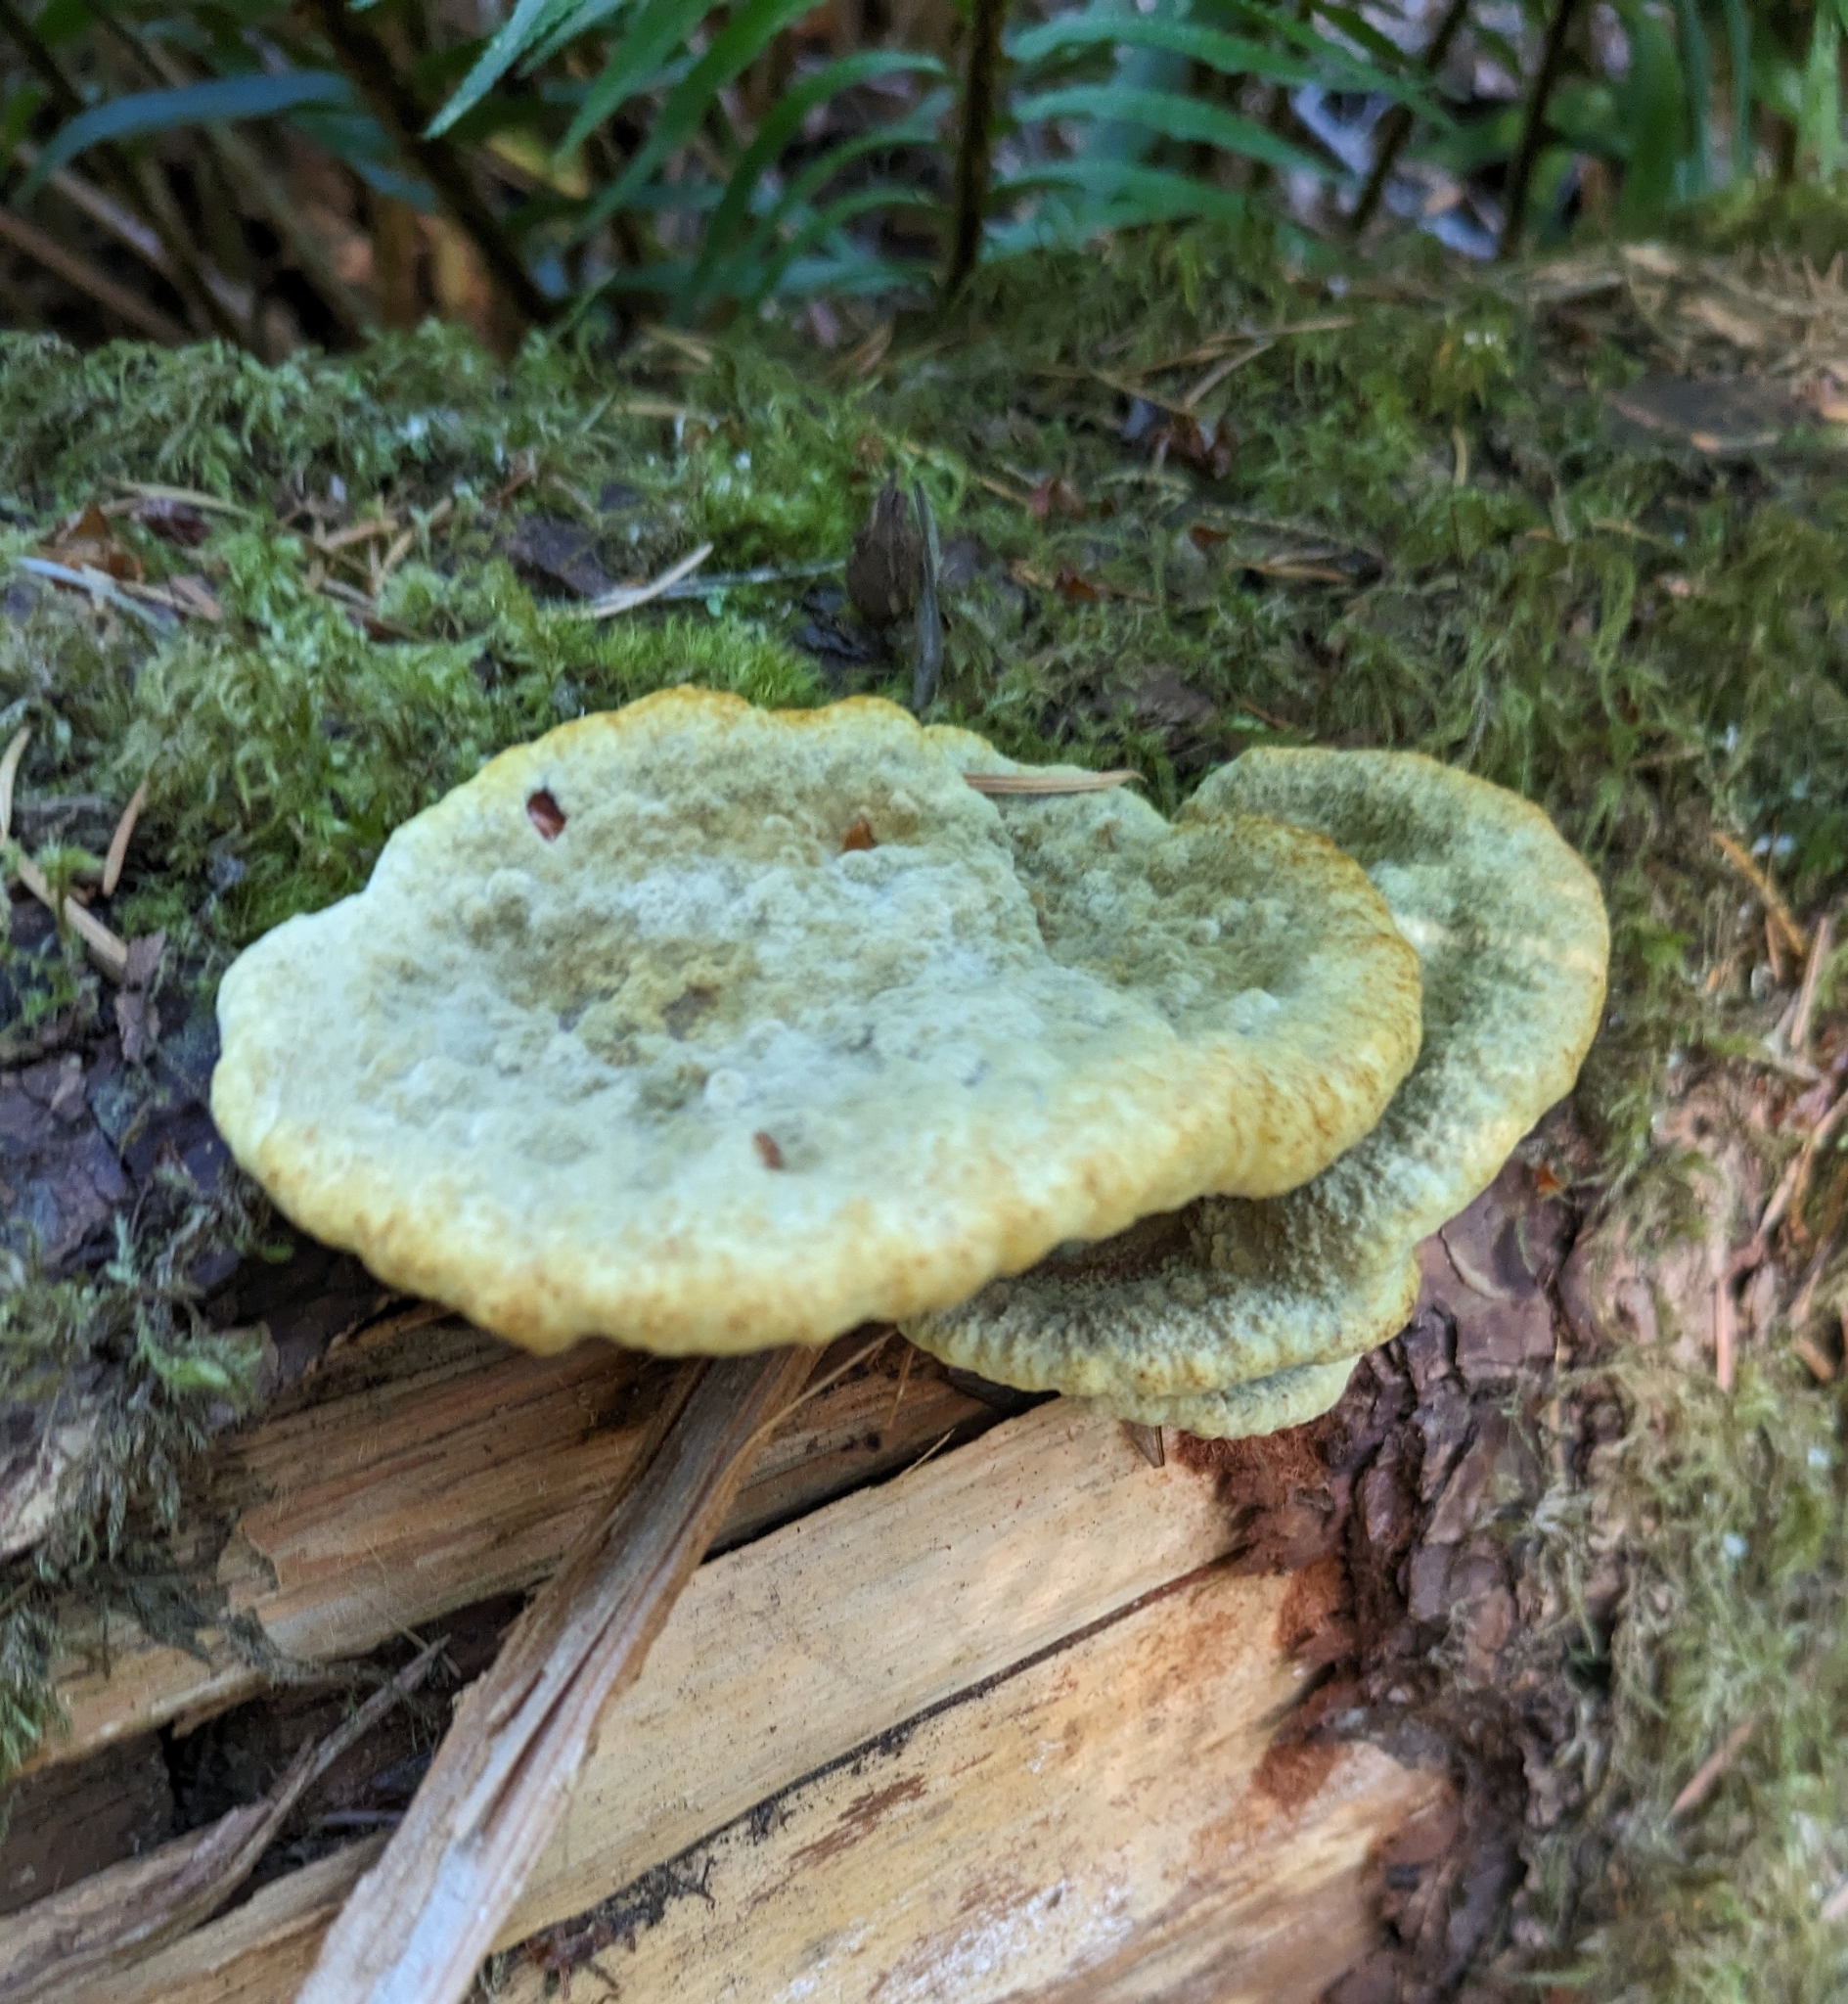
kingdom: Fungi
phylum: Basidiomycota
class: Agaricomycetes
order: Polyporales
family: Laetiporaceae
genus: Phaeolus
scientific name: Phaeolus schweinitzii
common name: Dyer's mazegill
